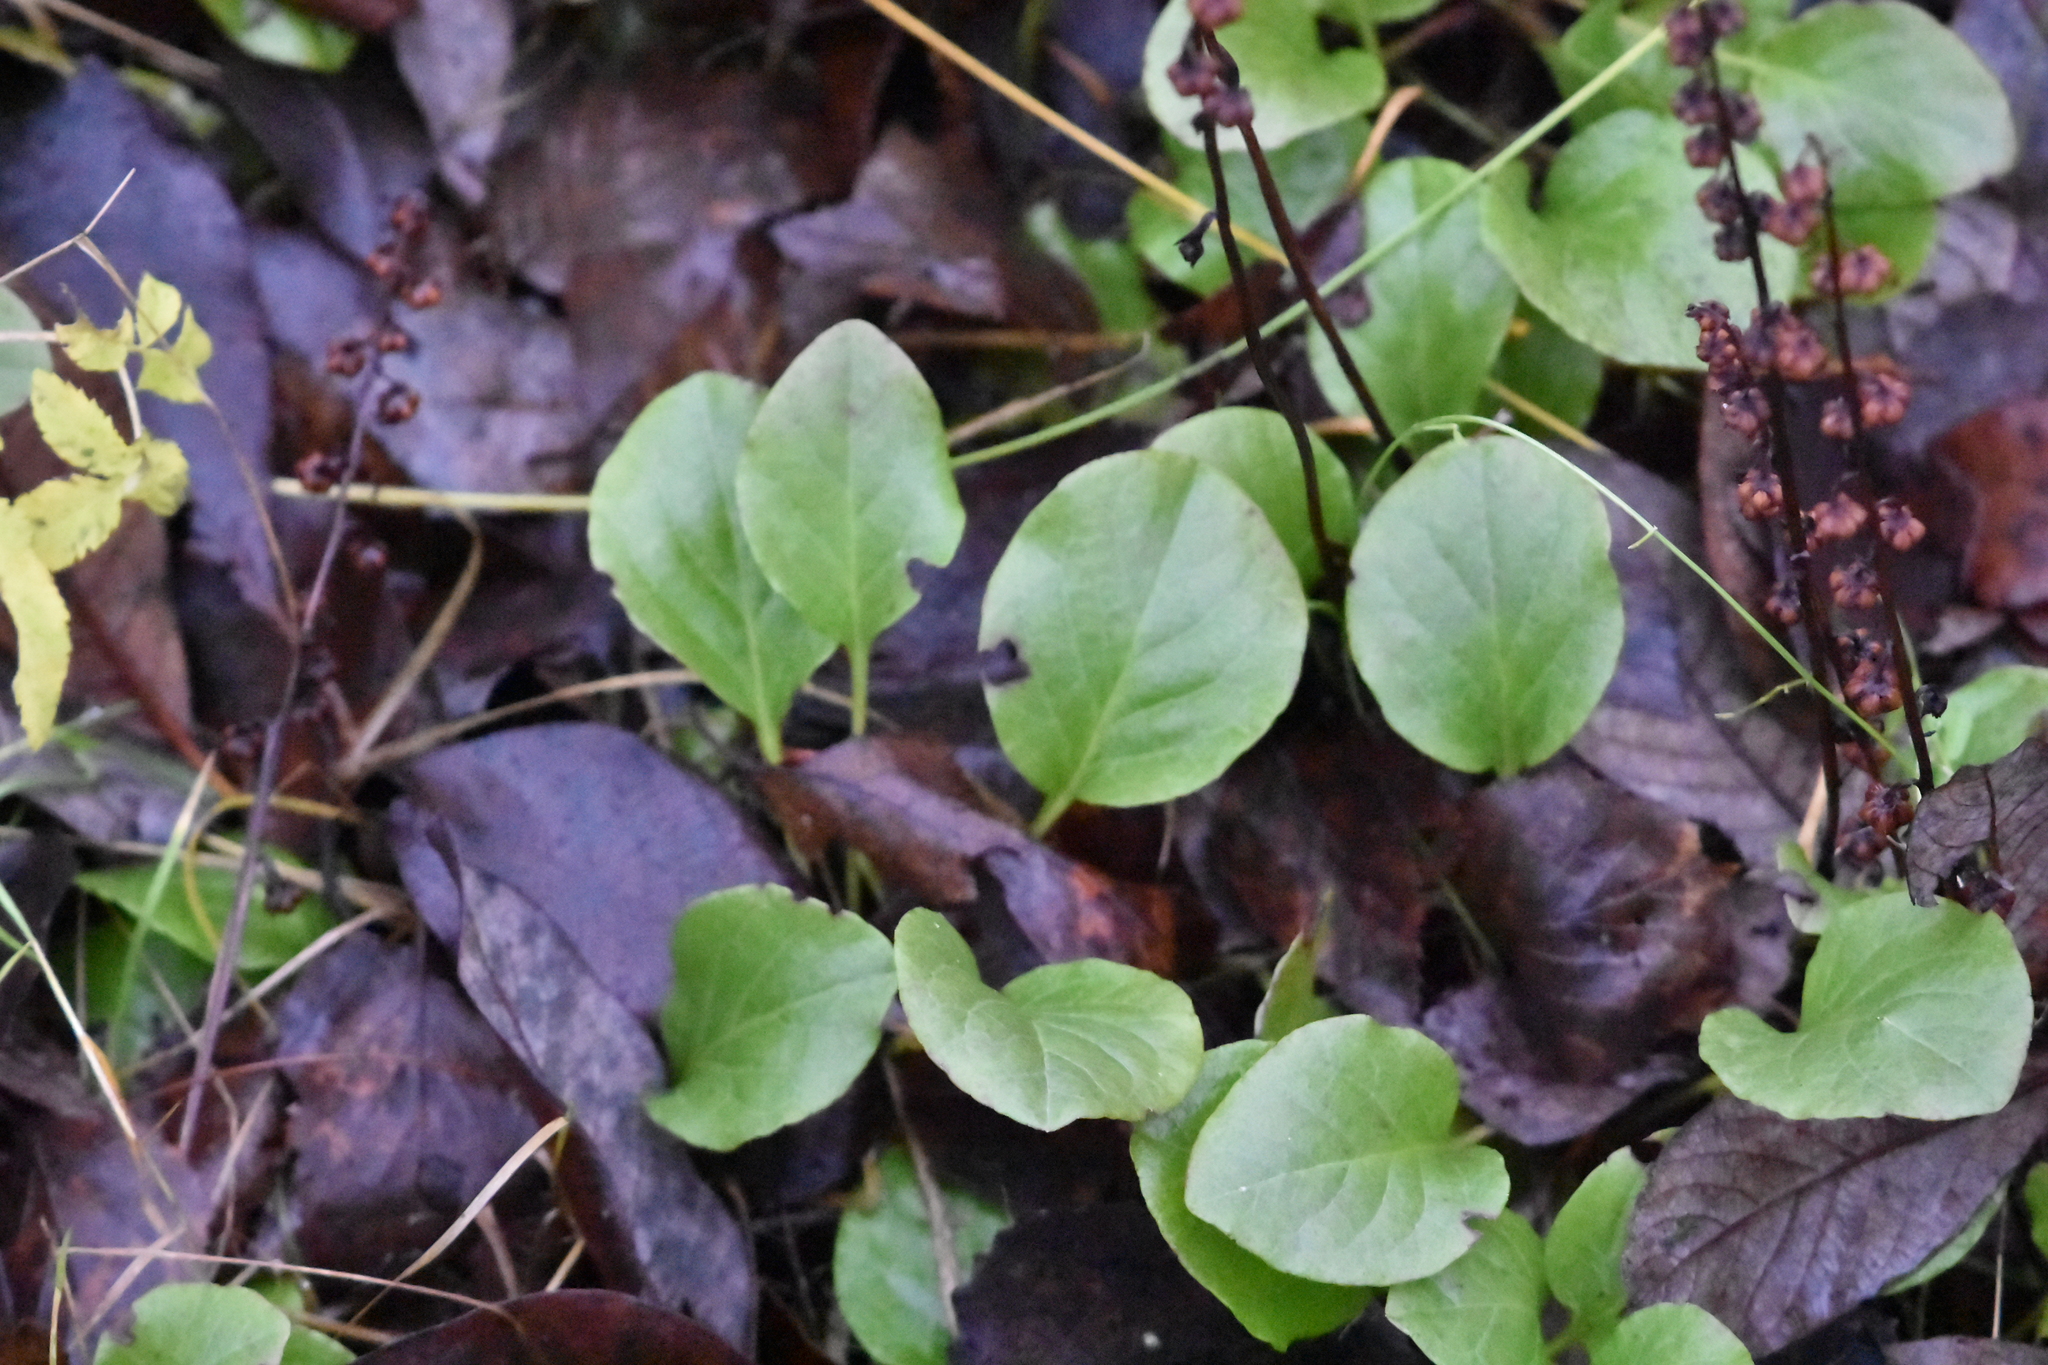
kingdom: Plantae
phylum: Tracheophyta
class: Magnoliopsida
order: Ericales
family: Ericaceae
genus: Pyrola
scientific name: Pyrola rotundifolia
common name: Round-leaved wintergreen
